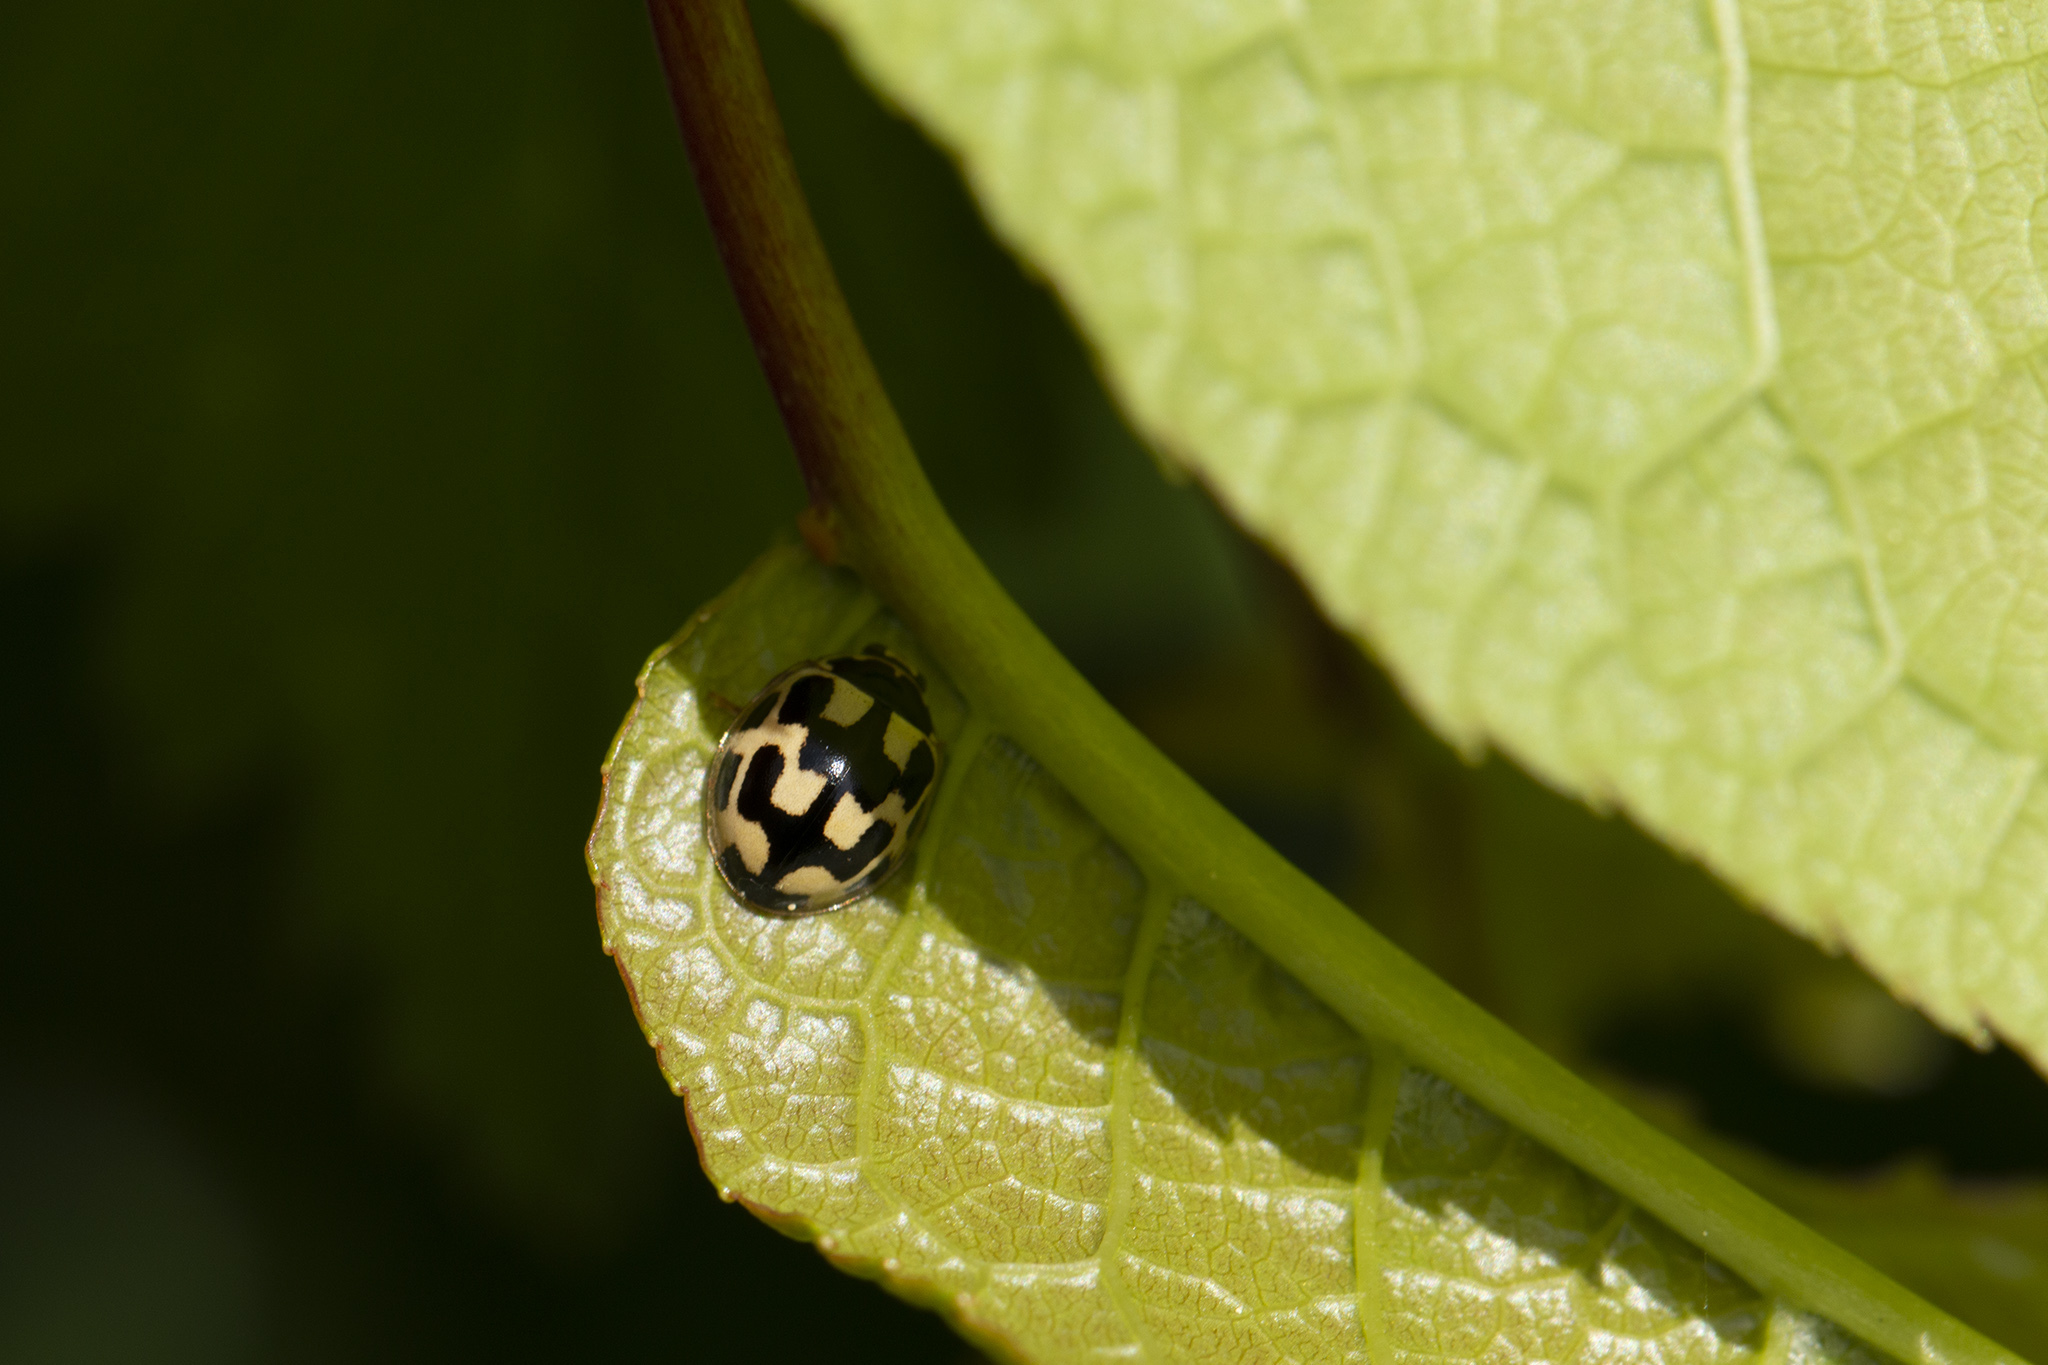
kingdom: Animalia
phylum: Arthropoda
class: Insecta
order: Coleoptera
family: Coccinellidae
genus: Propylaea
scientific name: Propylaea quatuordecimpunctata
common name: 14-spotted ladybird beetle
